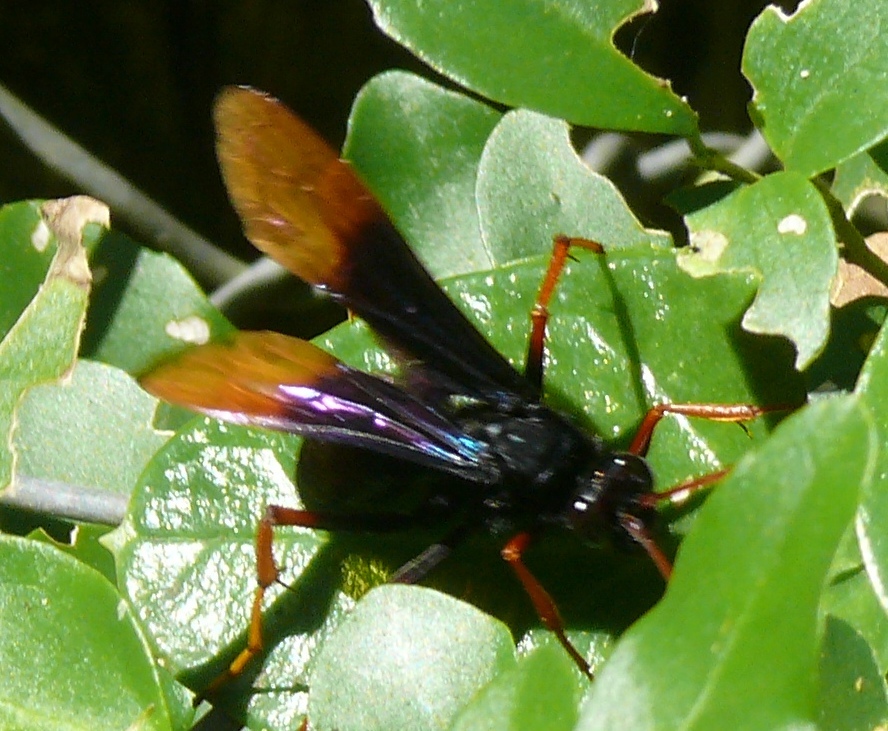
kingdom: Animalia
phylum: Arthropoda
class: Insecta
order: Hymenoptera
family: Pompilidae
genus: Java
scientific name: Java caroliwaterhousei
